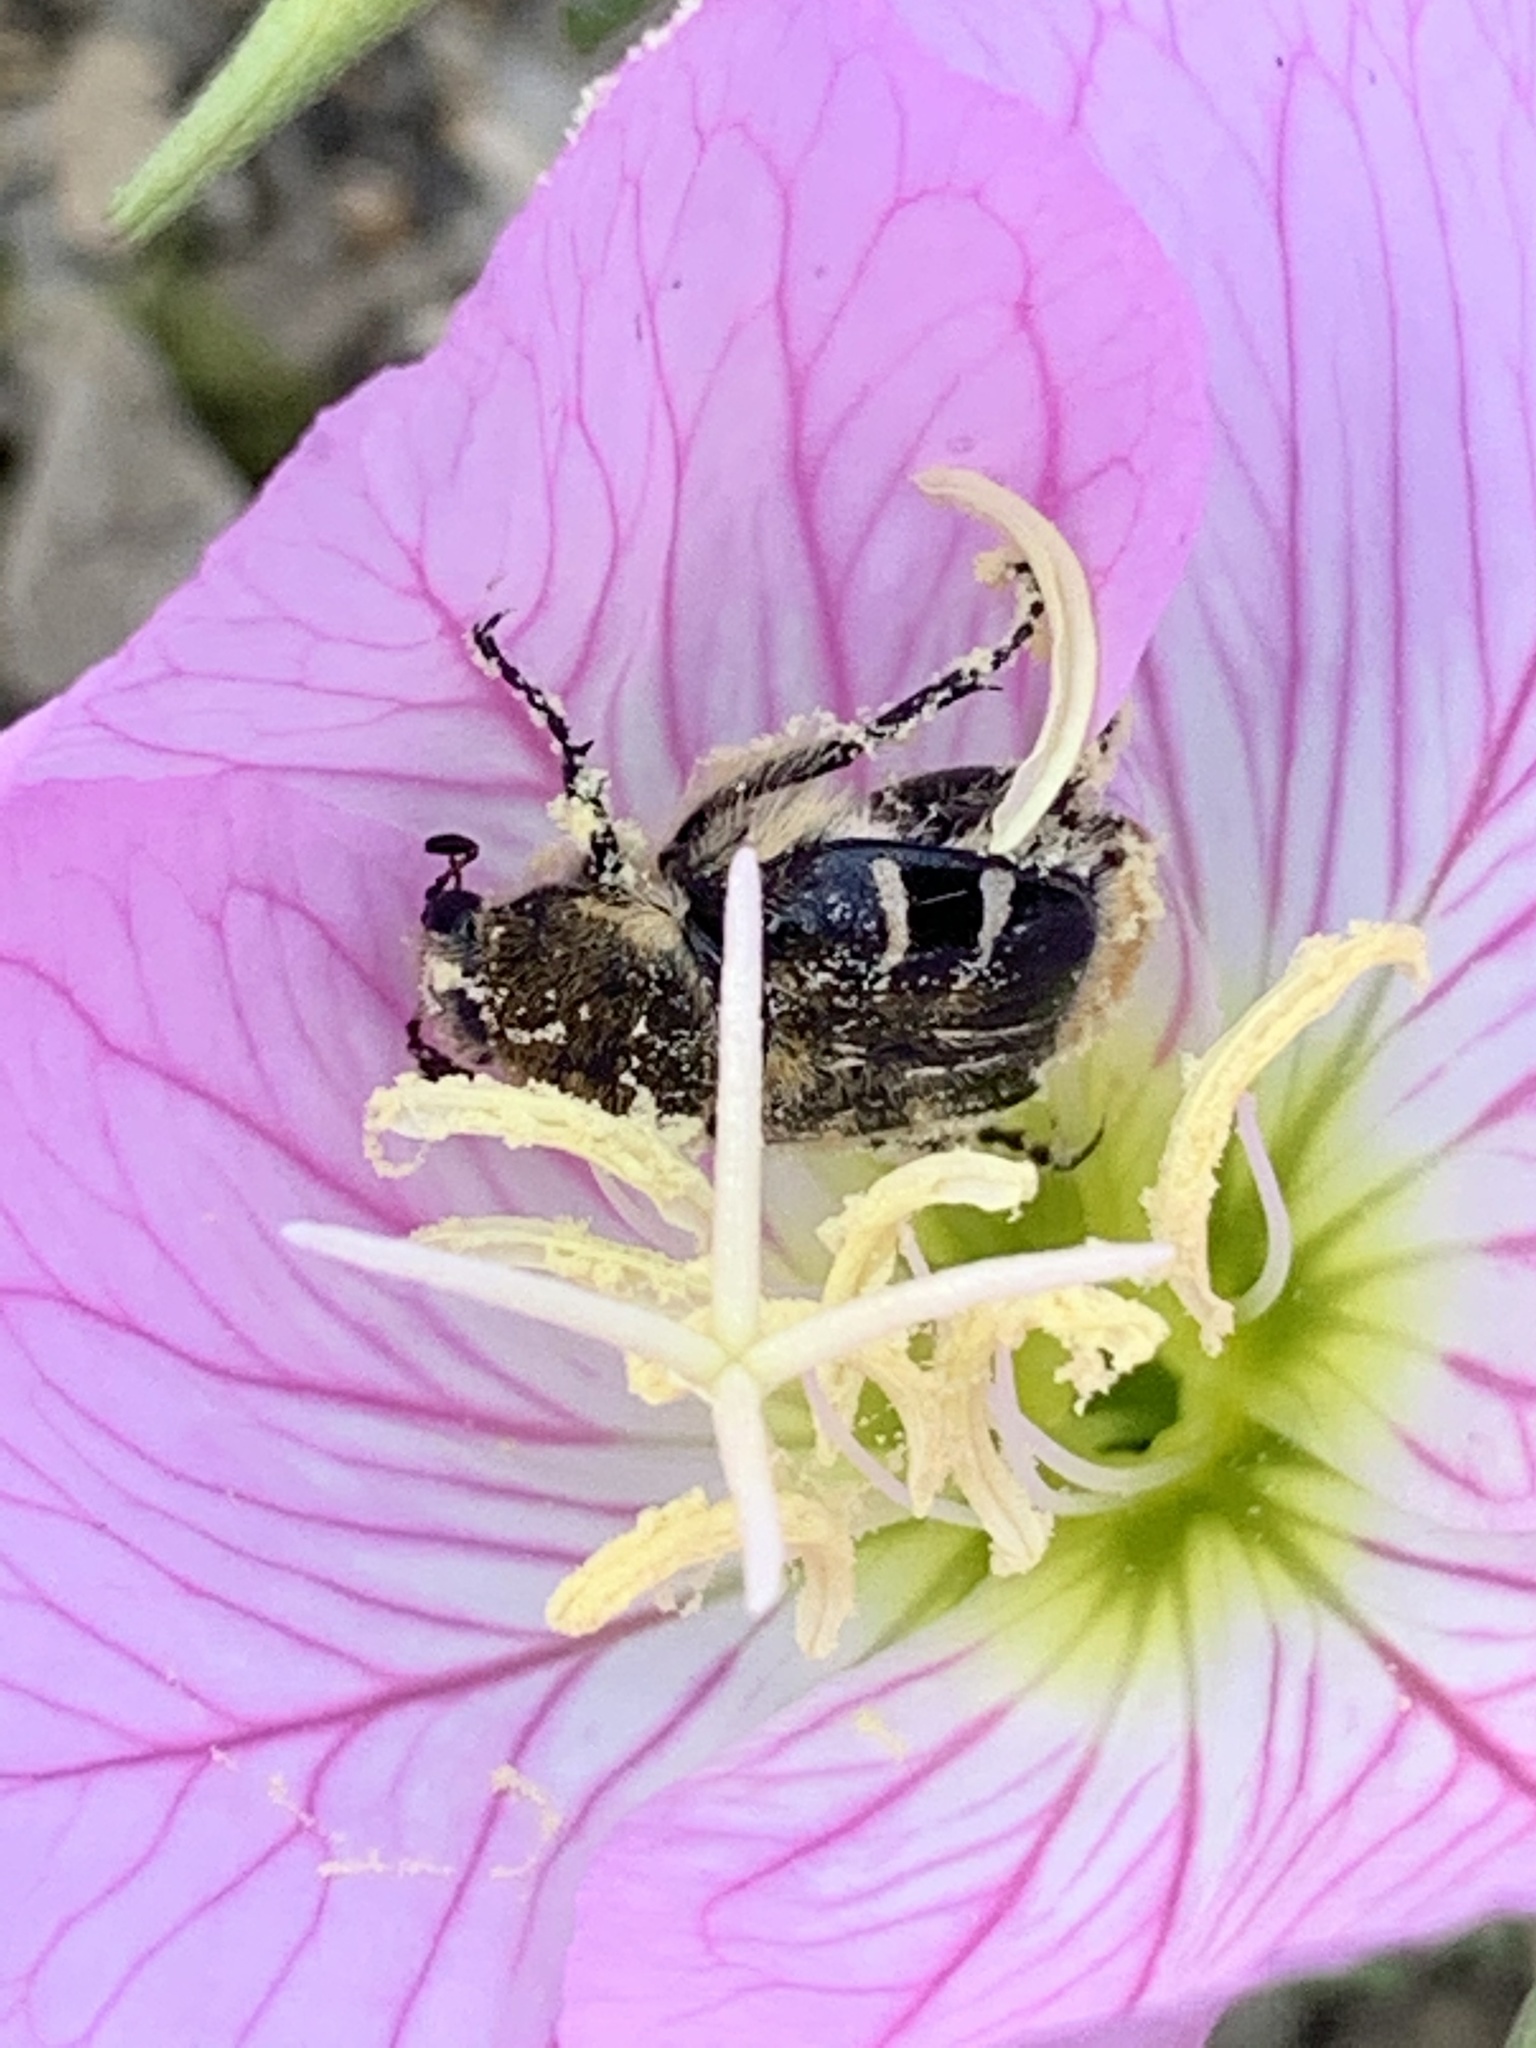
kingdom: Animalia
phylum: Arthropoda
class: Insecta
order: Coleoptera
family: Scarabaeidae
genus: Trichiotinus
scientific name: Trichiotinus texanus
